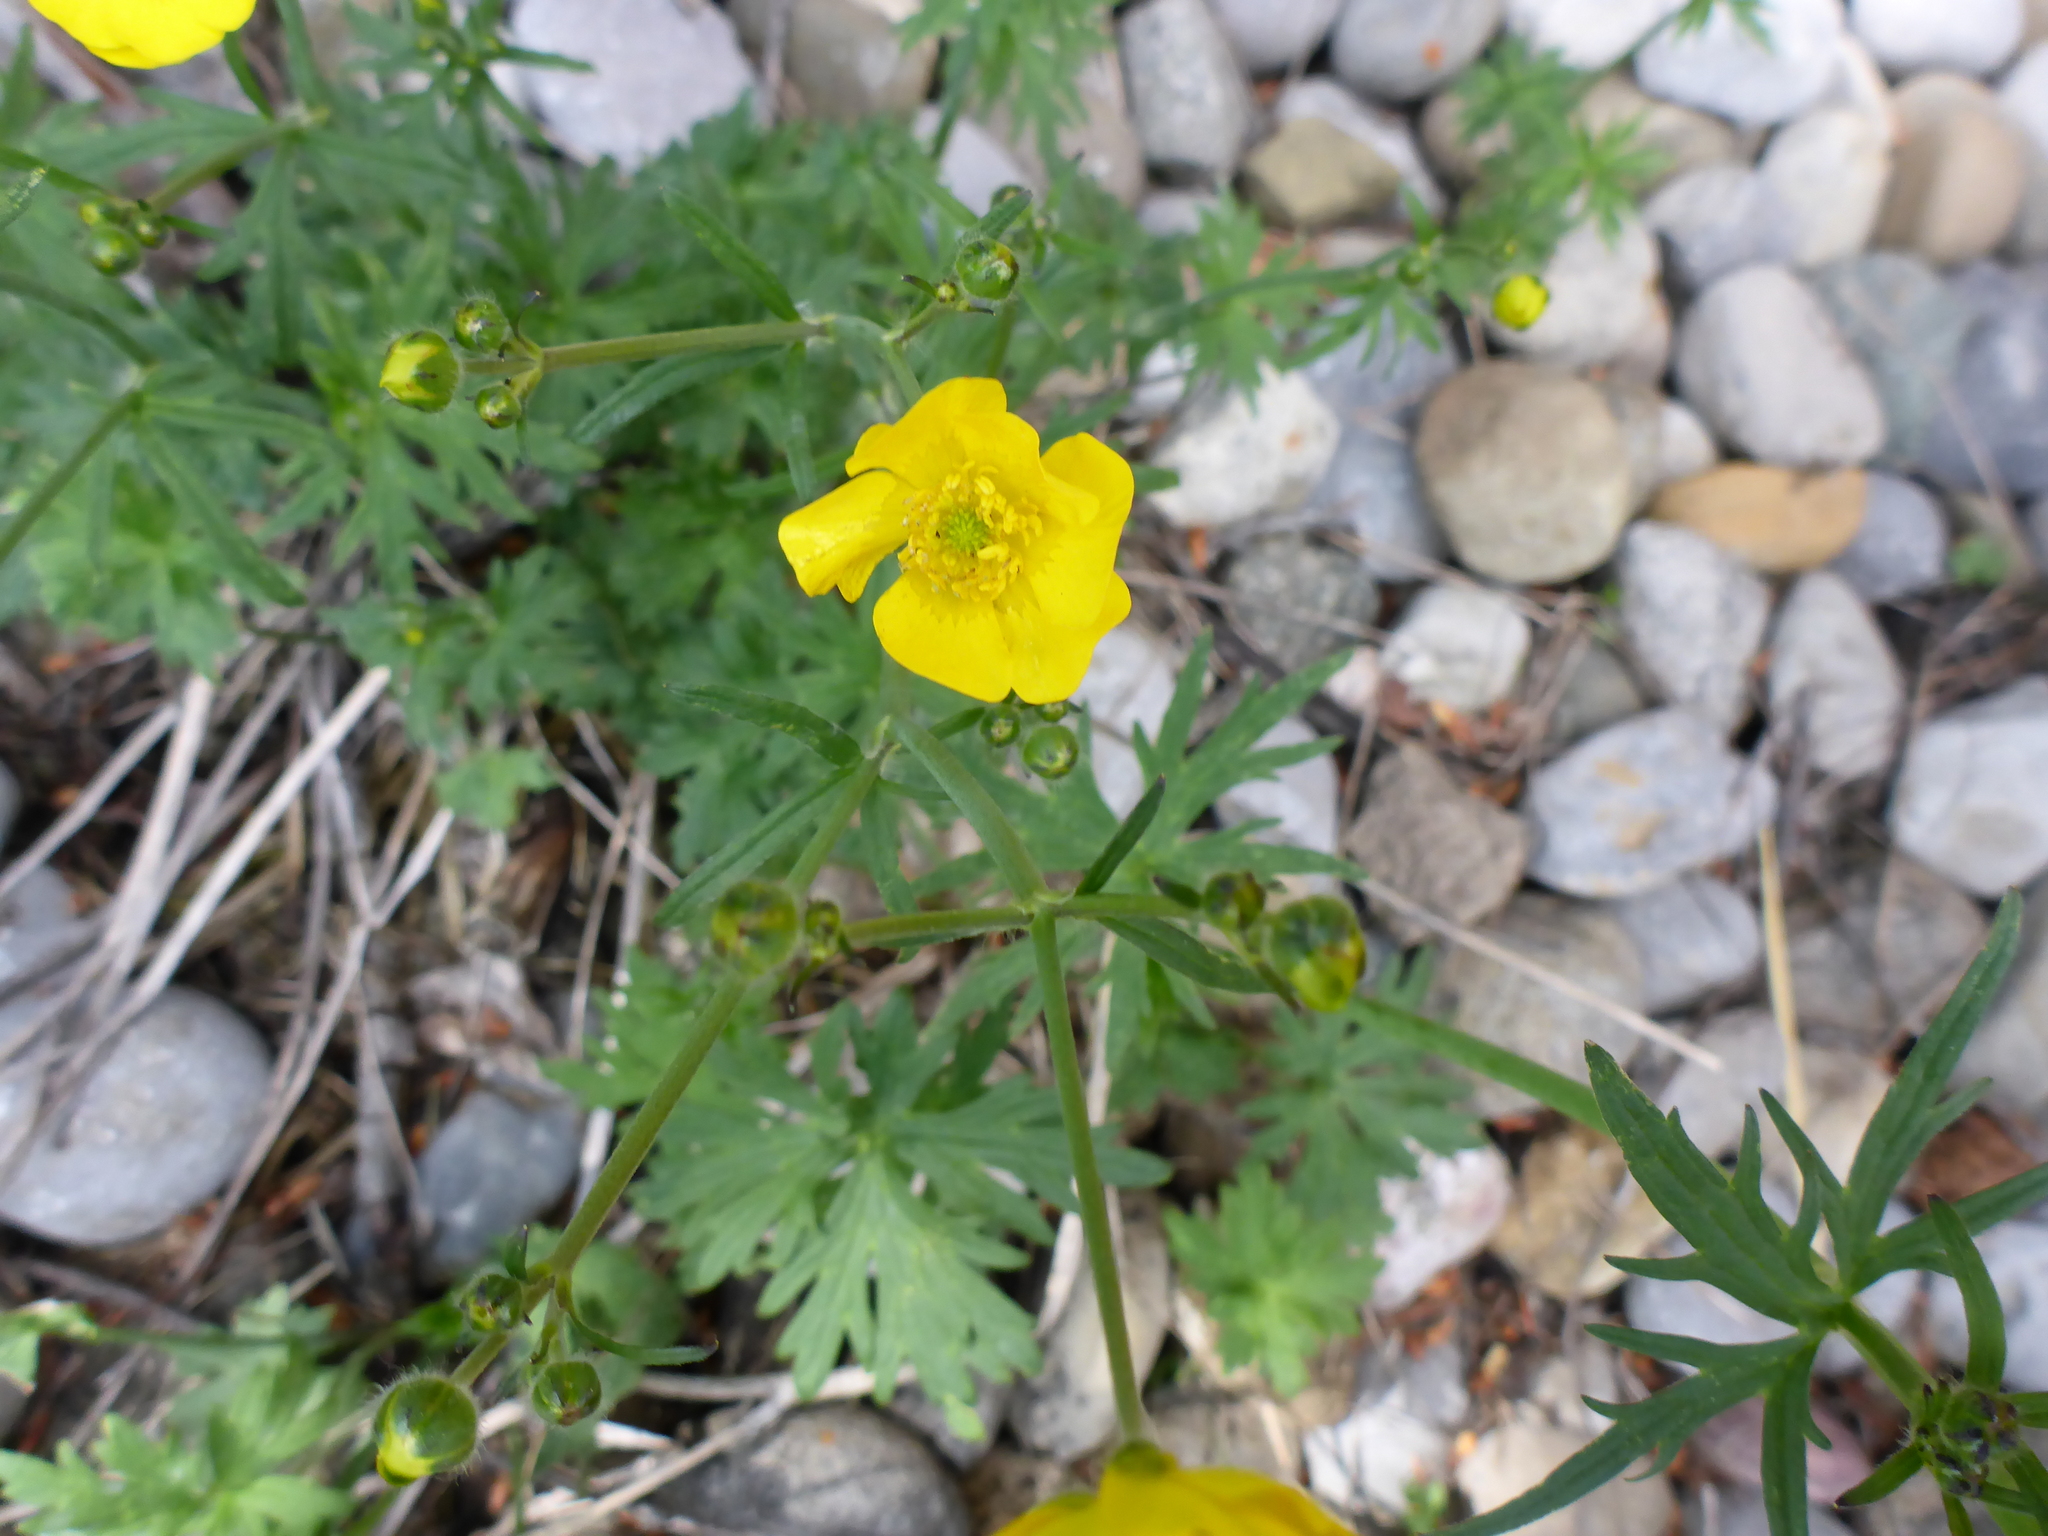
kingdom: Plantae
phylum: Tracheophyta
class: Magnoliopsida
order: Ranunculales
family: Ranunculaceae
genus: Ranunculus
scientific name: Ranunculus acris
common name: Meadow buttercup
